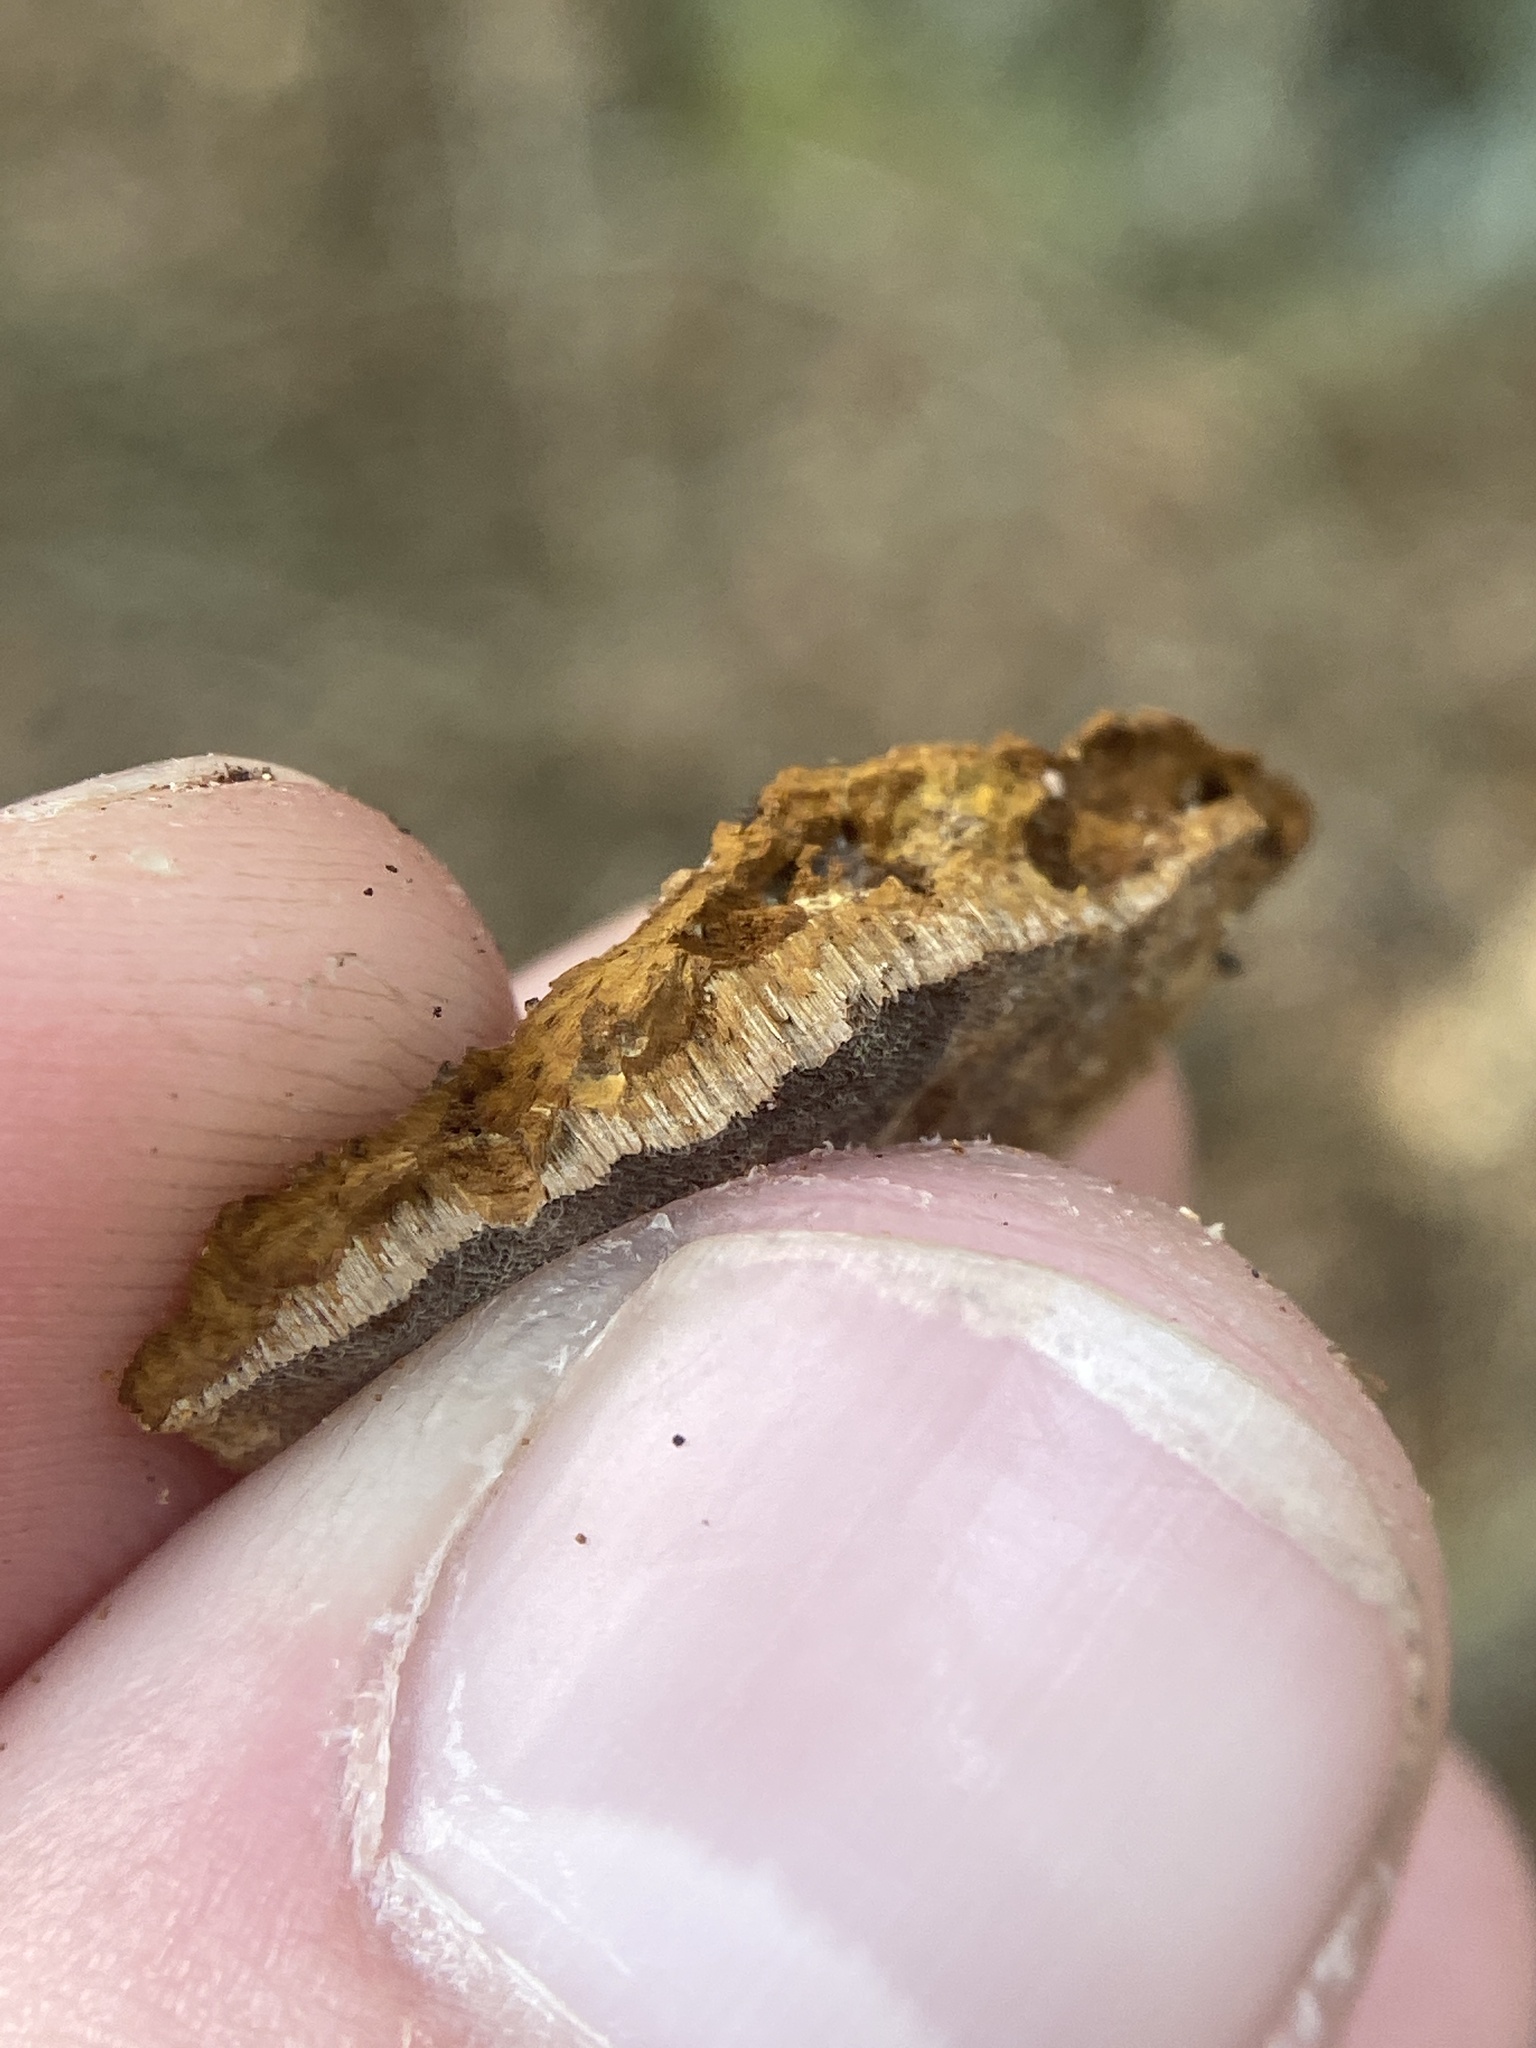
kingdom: Fungi
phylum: Basidiomycota
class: Agaricomycetes
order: Hymenochaetales
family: Hymenochaetaceae
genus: Phellinus
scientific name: Phellinus gilvus
